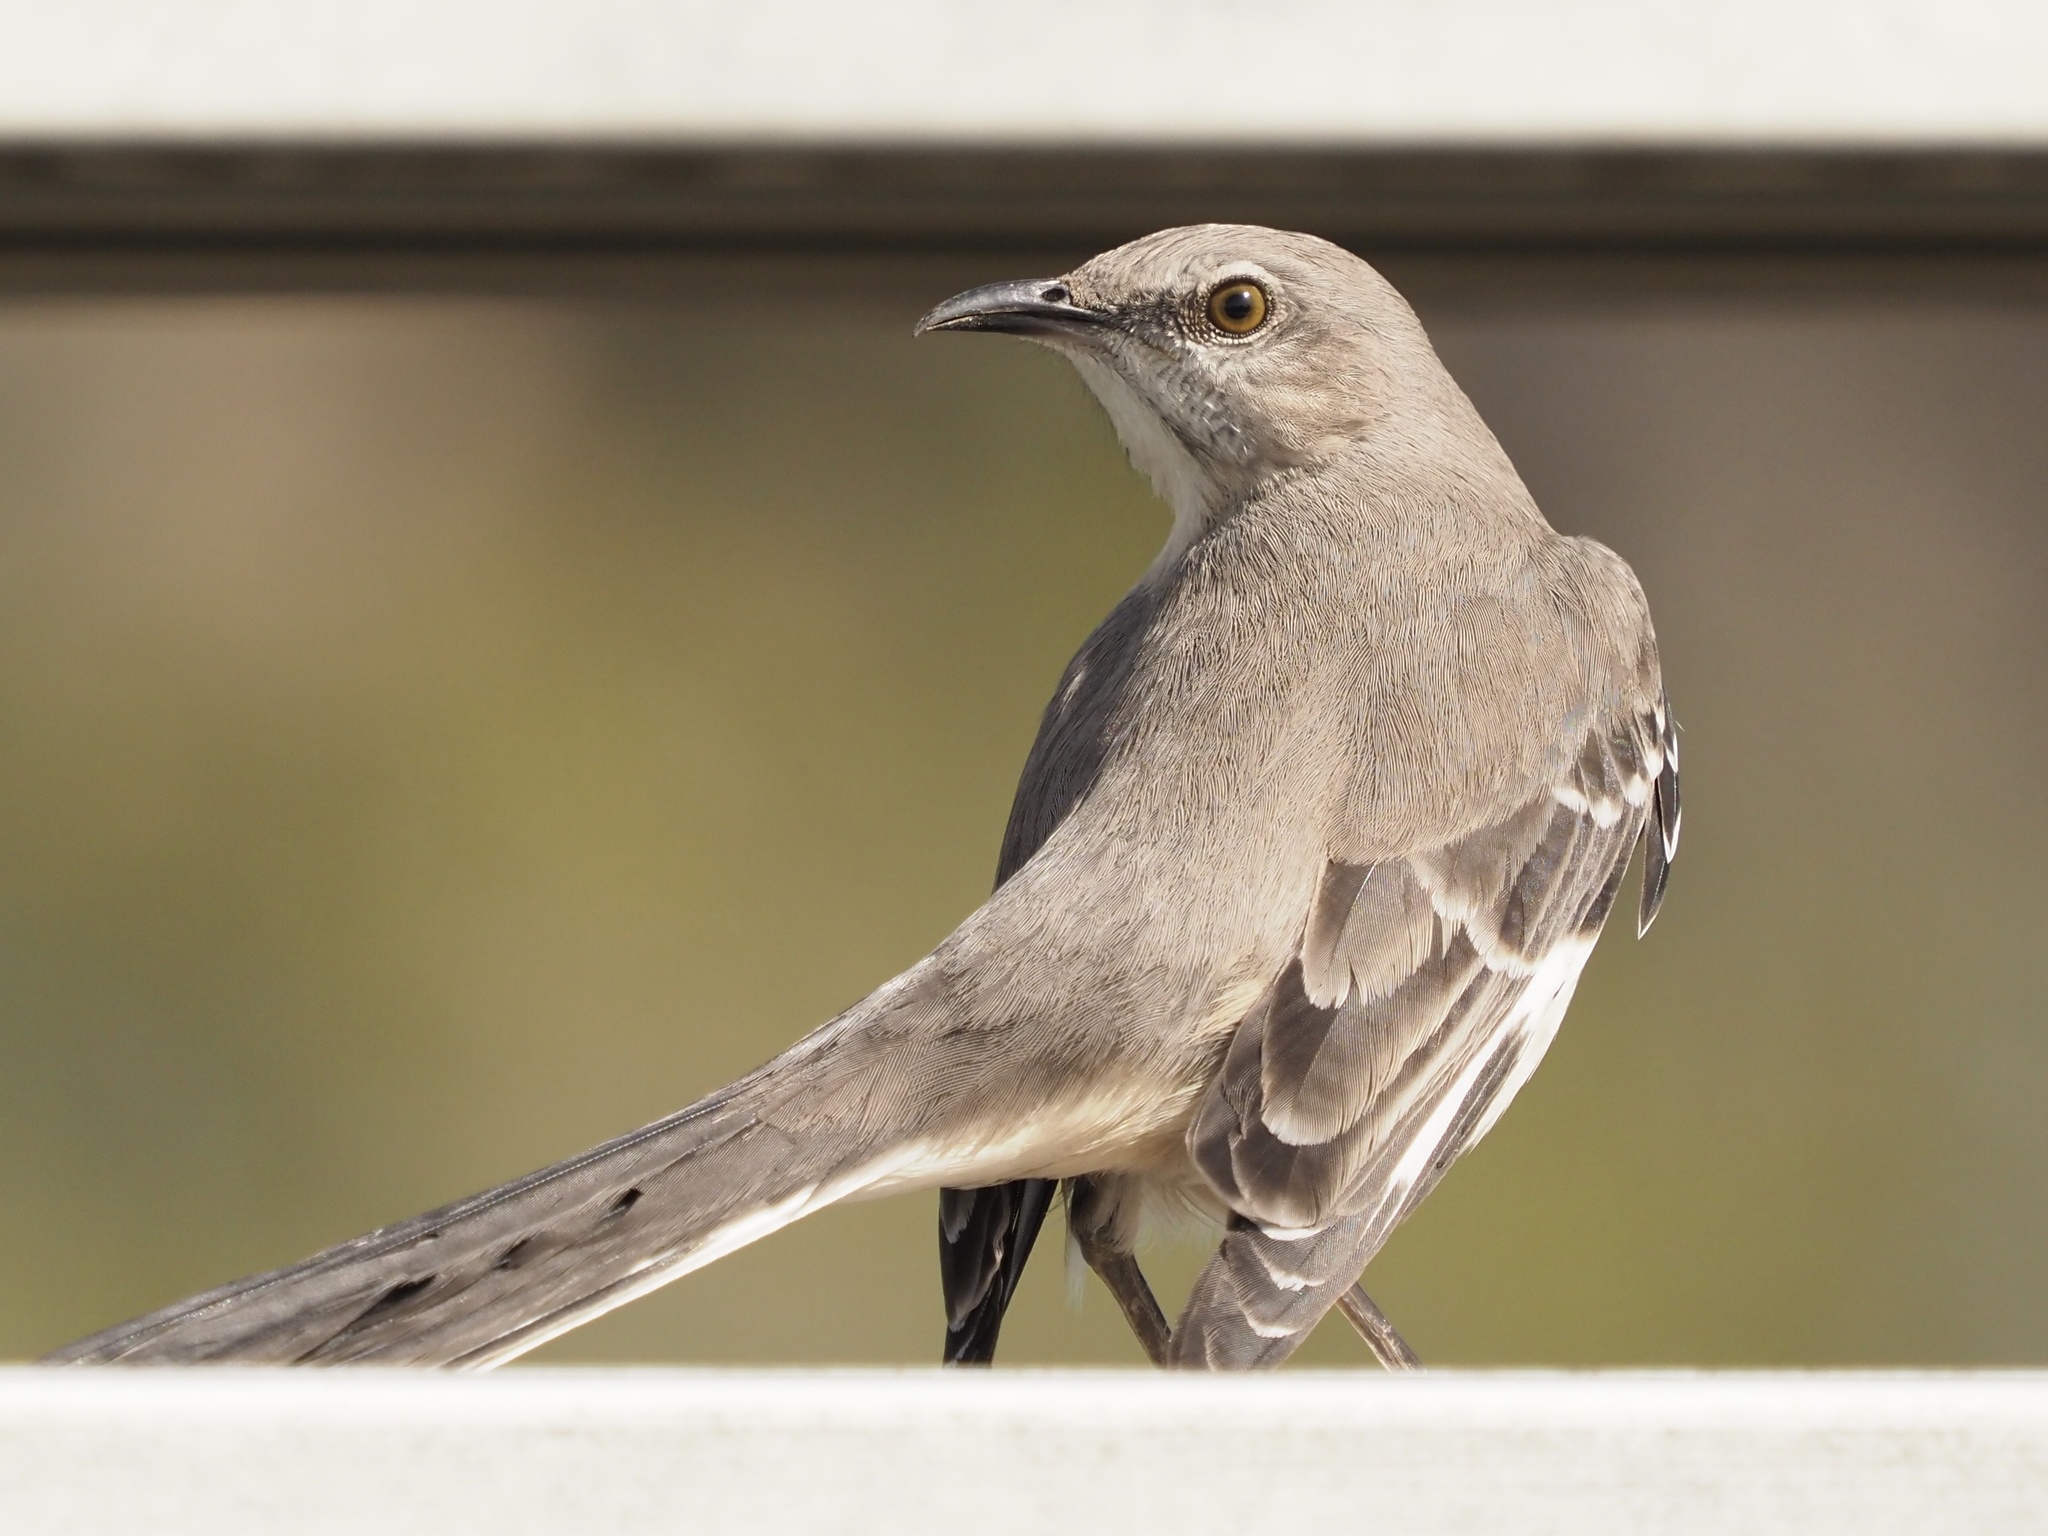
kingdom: Animalia
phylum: Chordata
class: Aves
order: Passeriformes
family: Mimidae
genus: Mimus
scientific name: Mimus polyglottos
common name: Northern mockingbird
